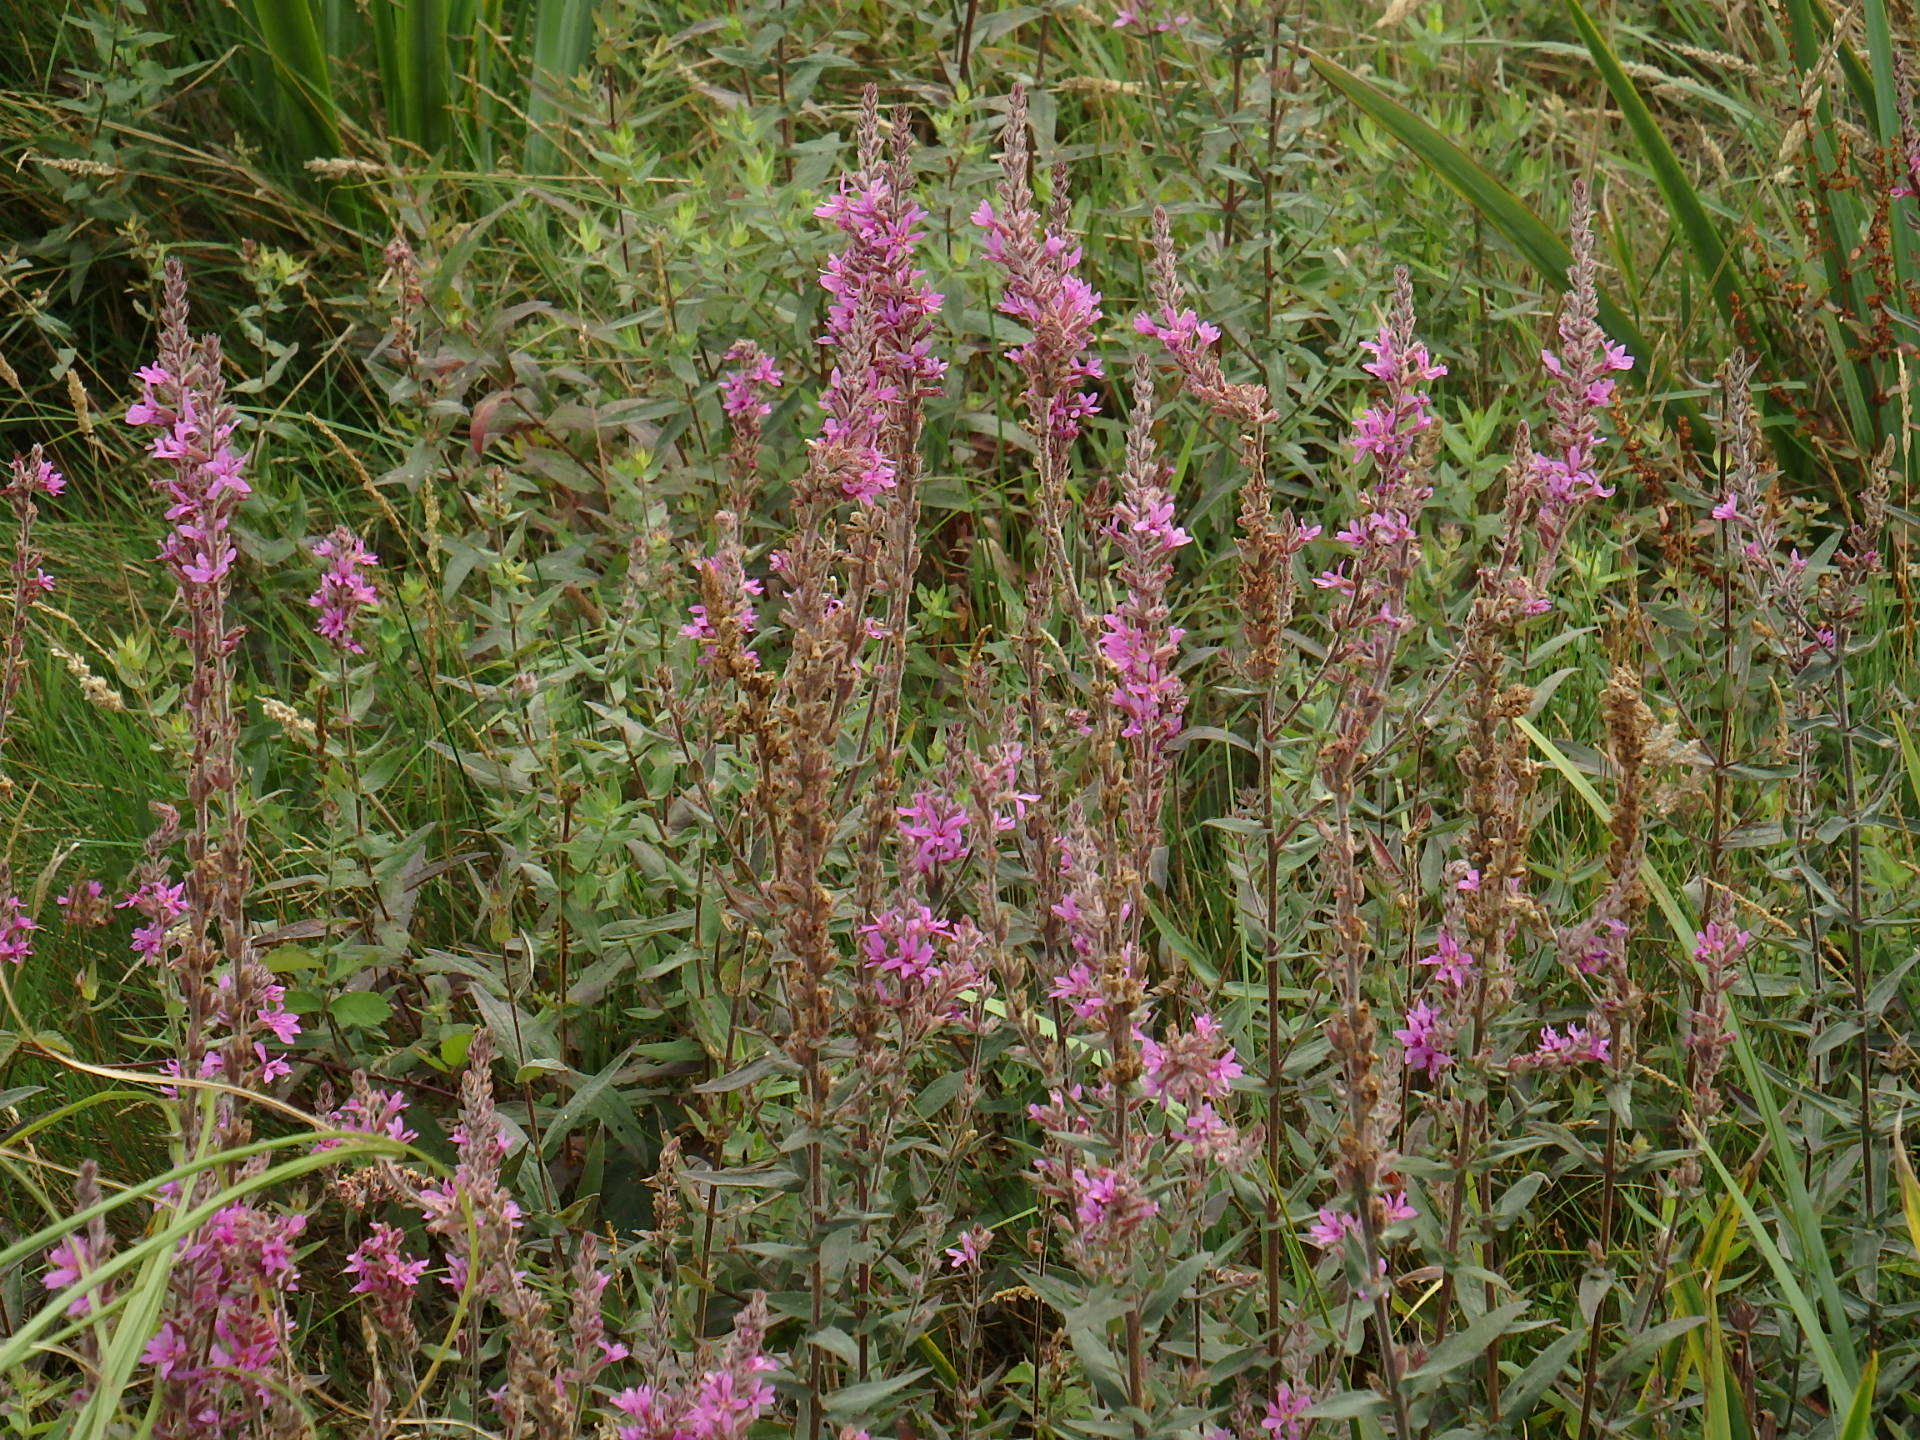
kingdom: Plantae
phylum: Tracheophyta
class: Magnoliopsida
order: Myrtales
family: Lythraceae
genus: Lythrum
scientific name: Lythrum salicaria
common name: Purple loosestrife
